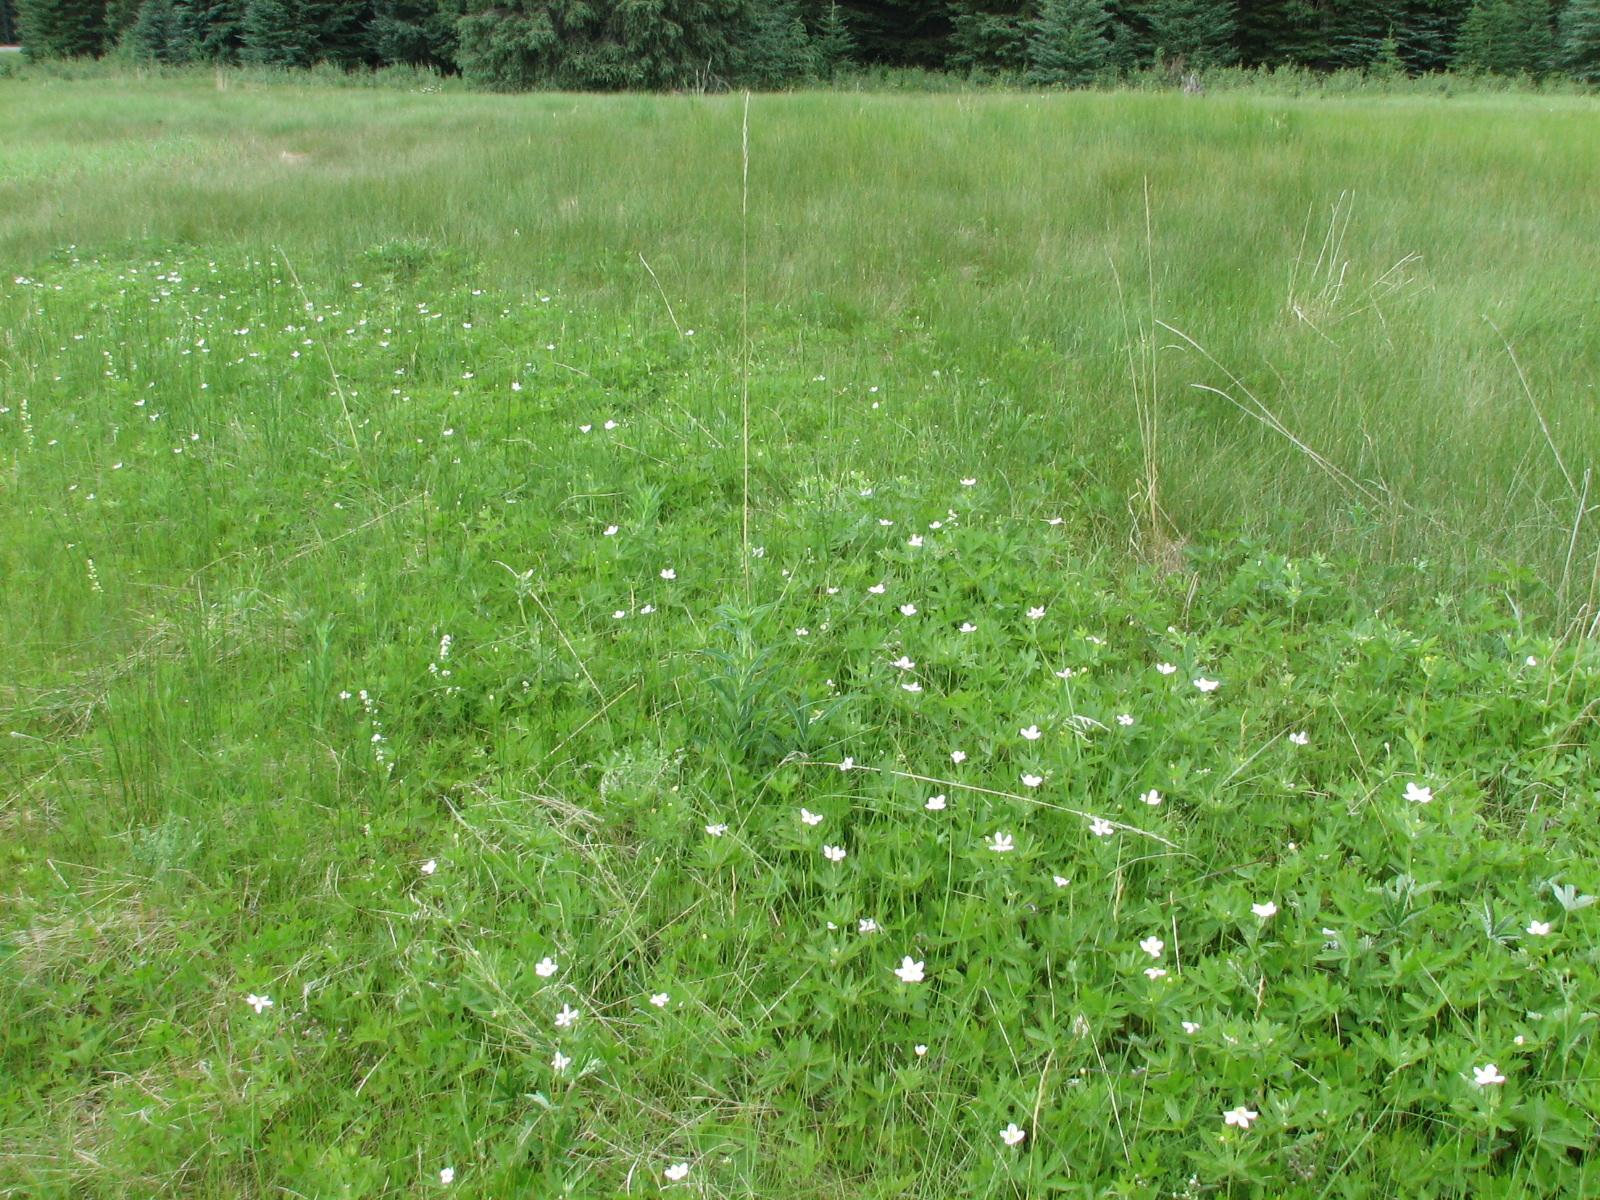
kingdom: Plantae
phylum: Tracheophyta
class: Magnoliopsida
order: Ranunculales
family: Ranunculaceae
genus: Anemonastrum
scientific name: Anemonastrum canadense
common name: Canada anemone
